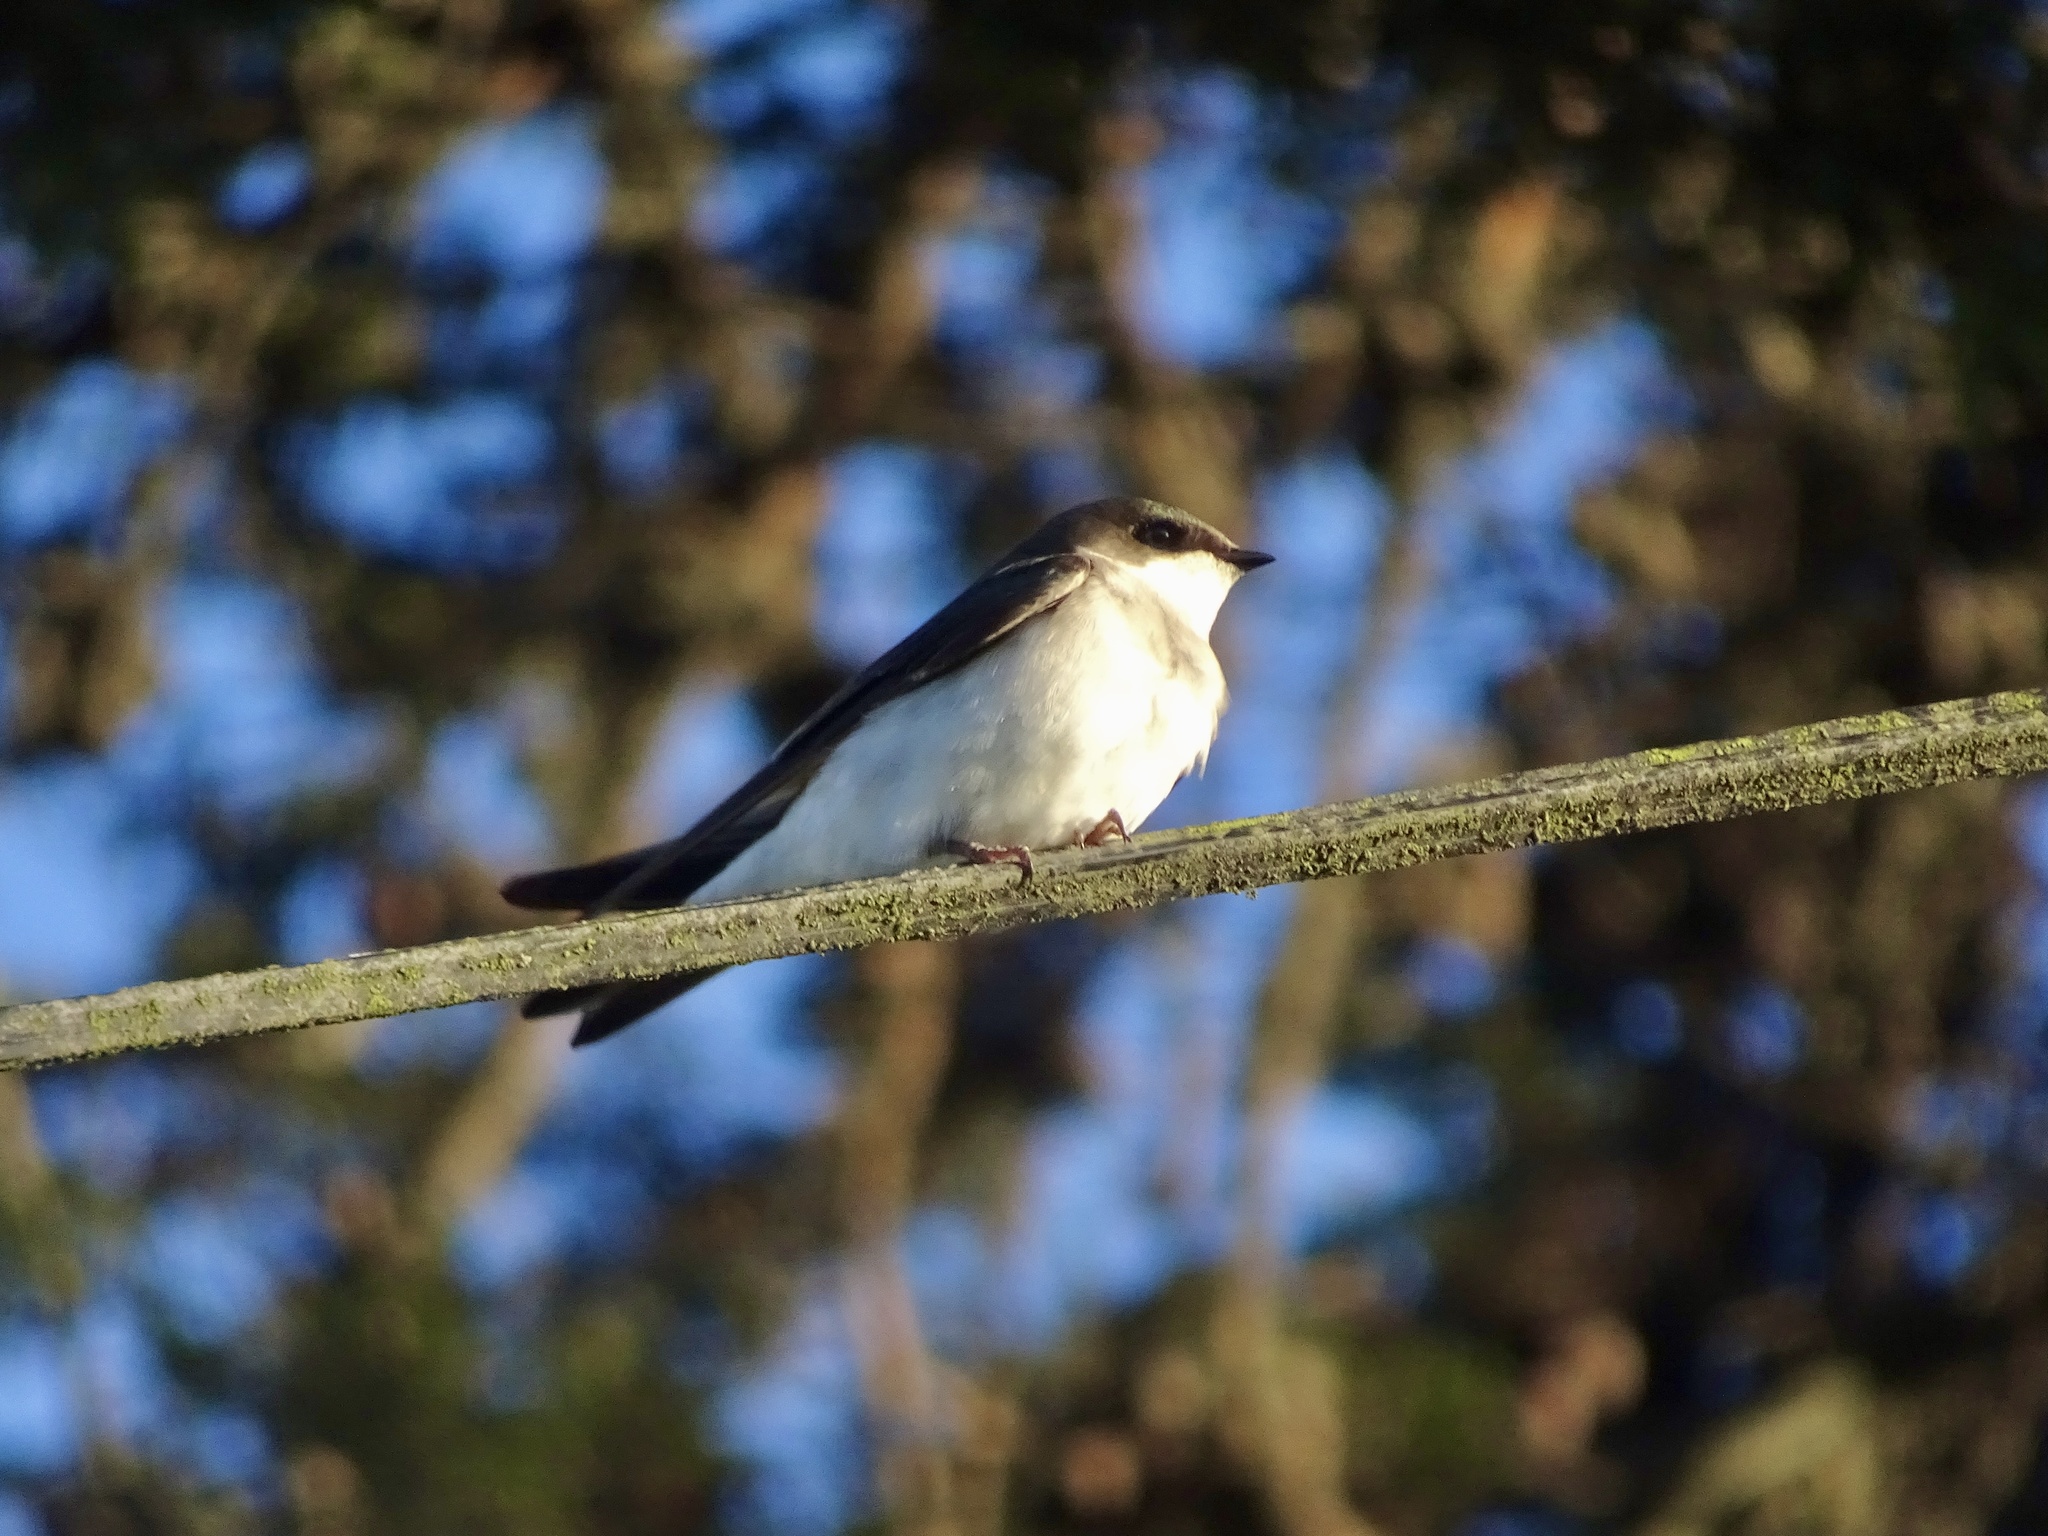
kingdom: Animalia
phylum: Chordata
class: Aves
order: Passeriformes
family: Hirundinidae
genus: Tachycineta
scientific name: Tachycineta bicolor
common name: Tree swallow
